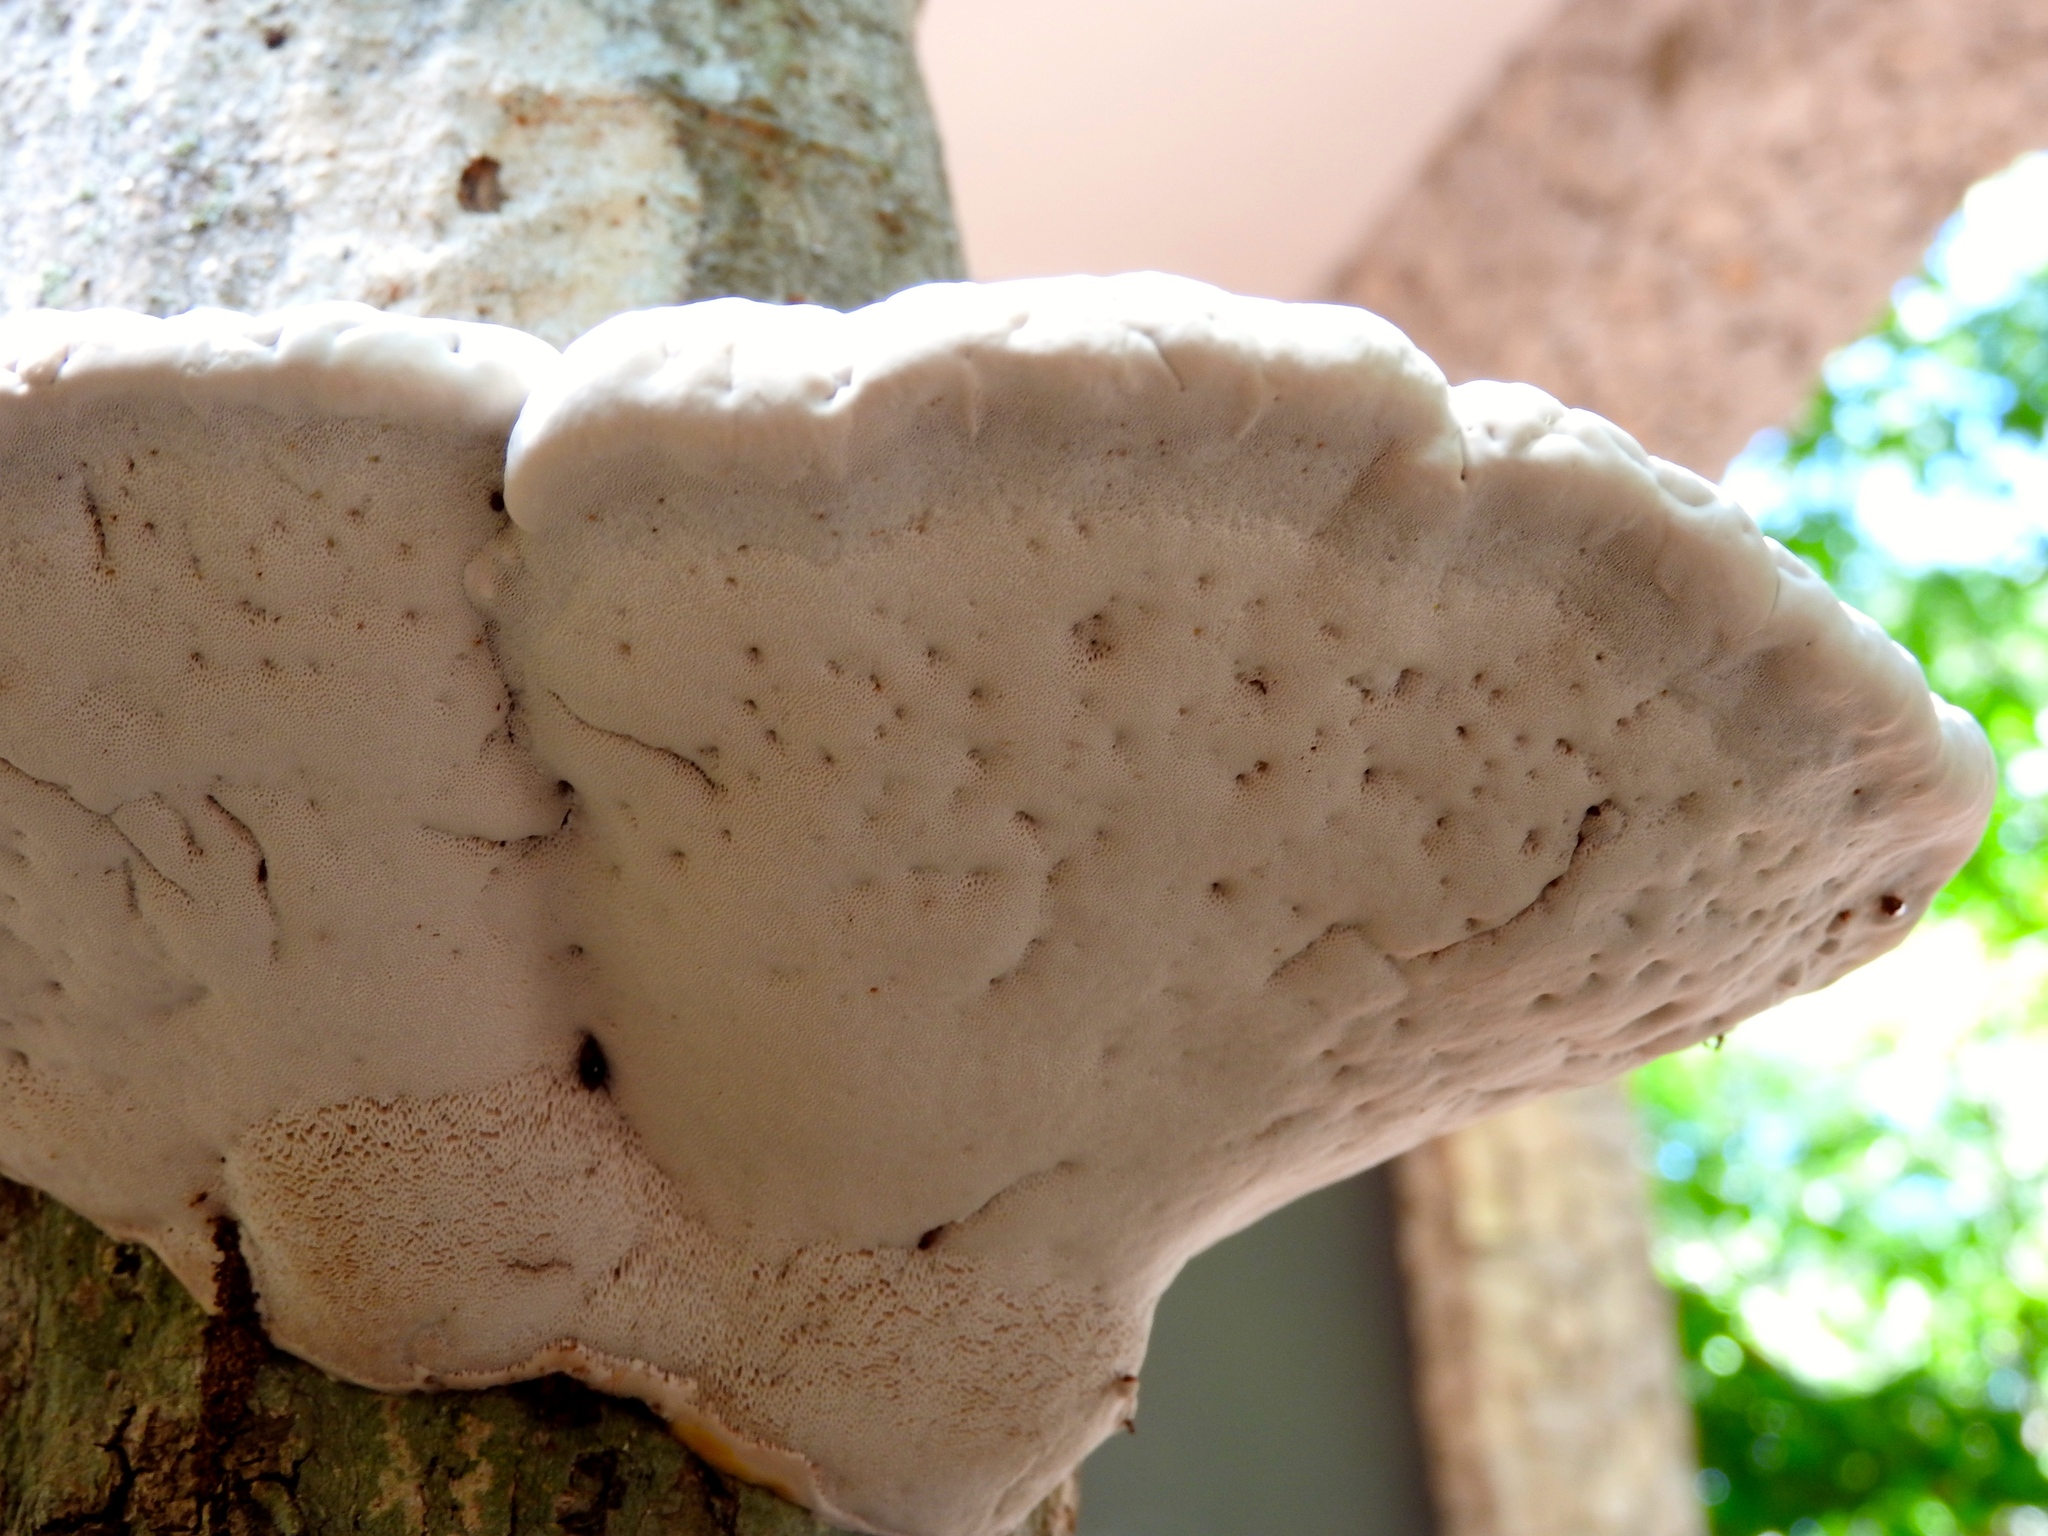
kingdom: Fungi
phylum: Basidiomycota
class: Agaricomycetes
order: Polyporales
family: Polyporaceae
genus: Ganoderma
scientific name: Ganoderma
